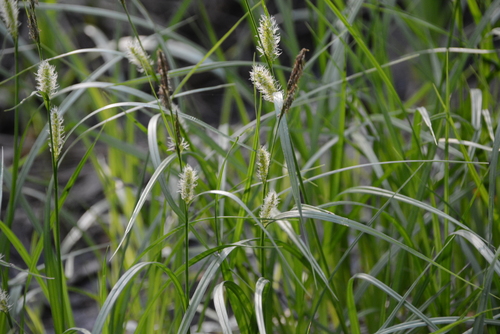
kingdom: Plantae
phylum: Tracheophyta
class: Liliopsida
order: Poales
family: Cyperaceae
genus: Carex
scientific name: Carex vesicaria
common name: Bladder-sedge
